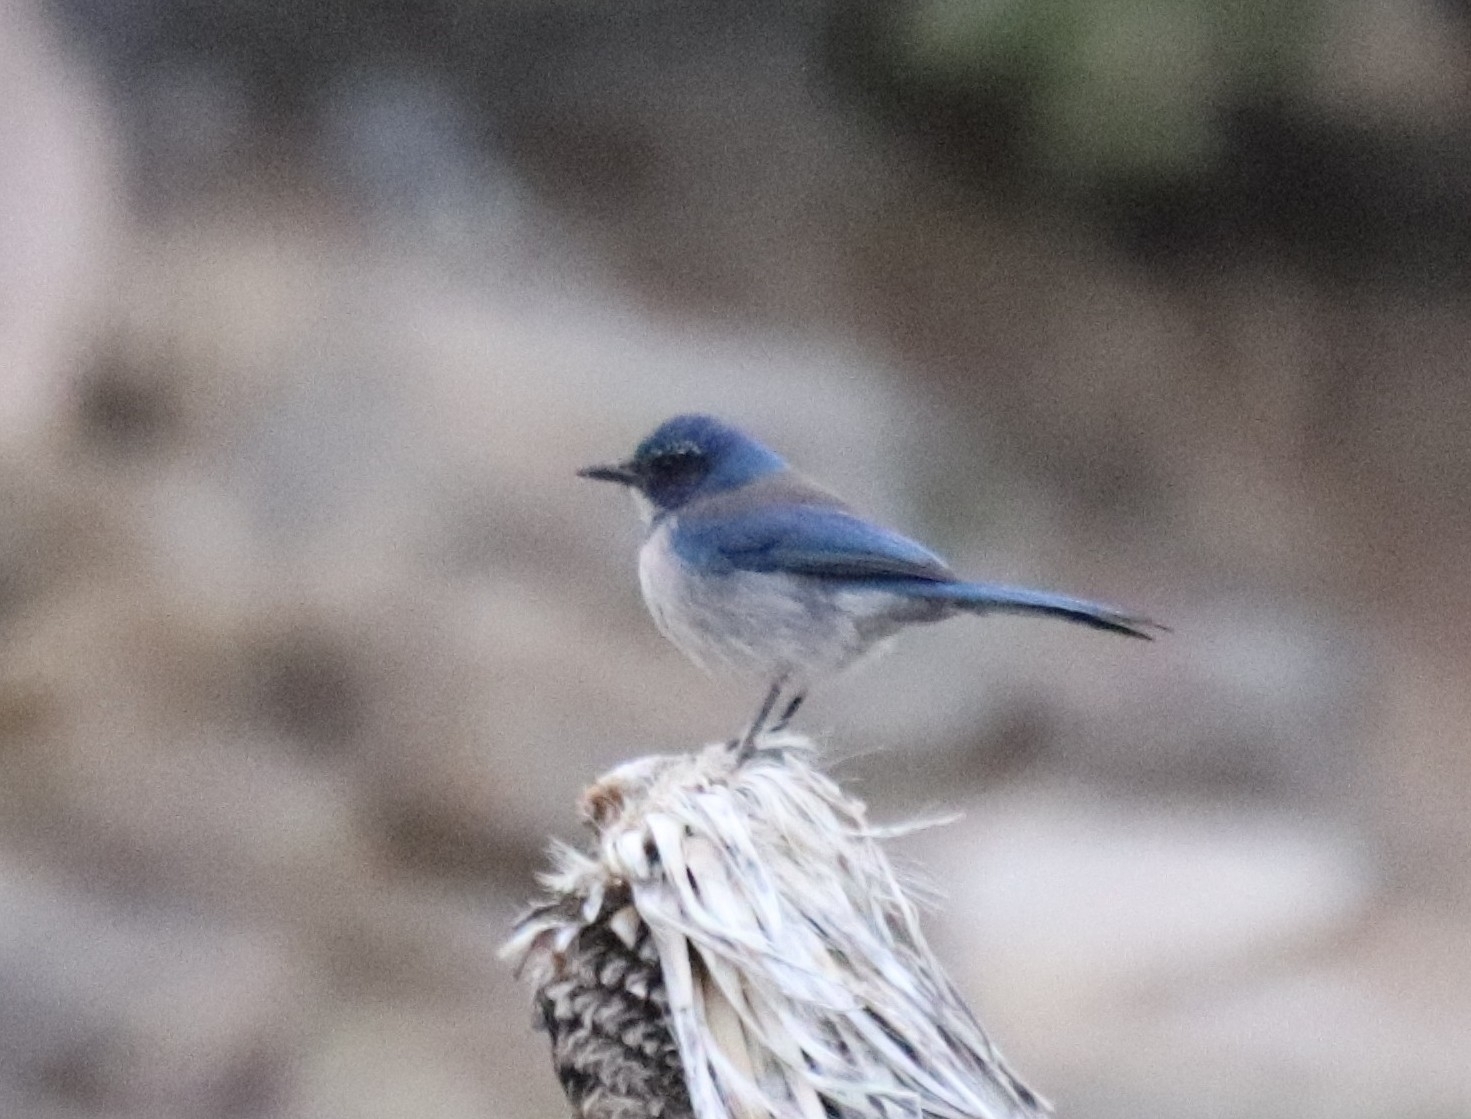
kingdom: Animalia
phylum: Chordata
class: Aves
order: Passeriformes
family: Corvidae
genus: Aphelocoma
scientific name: Aphelocoma californica
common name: California scrub-jay
